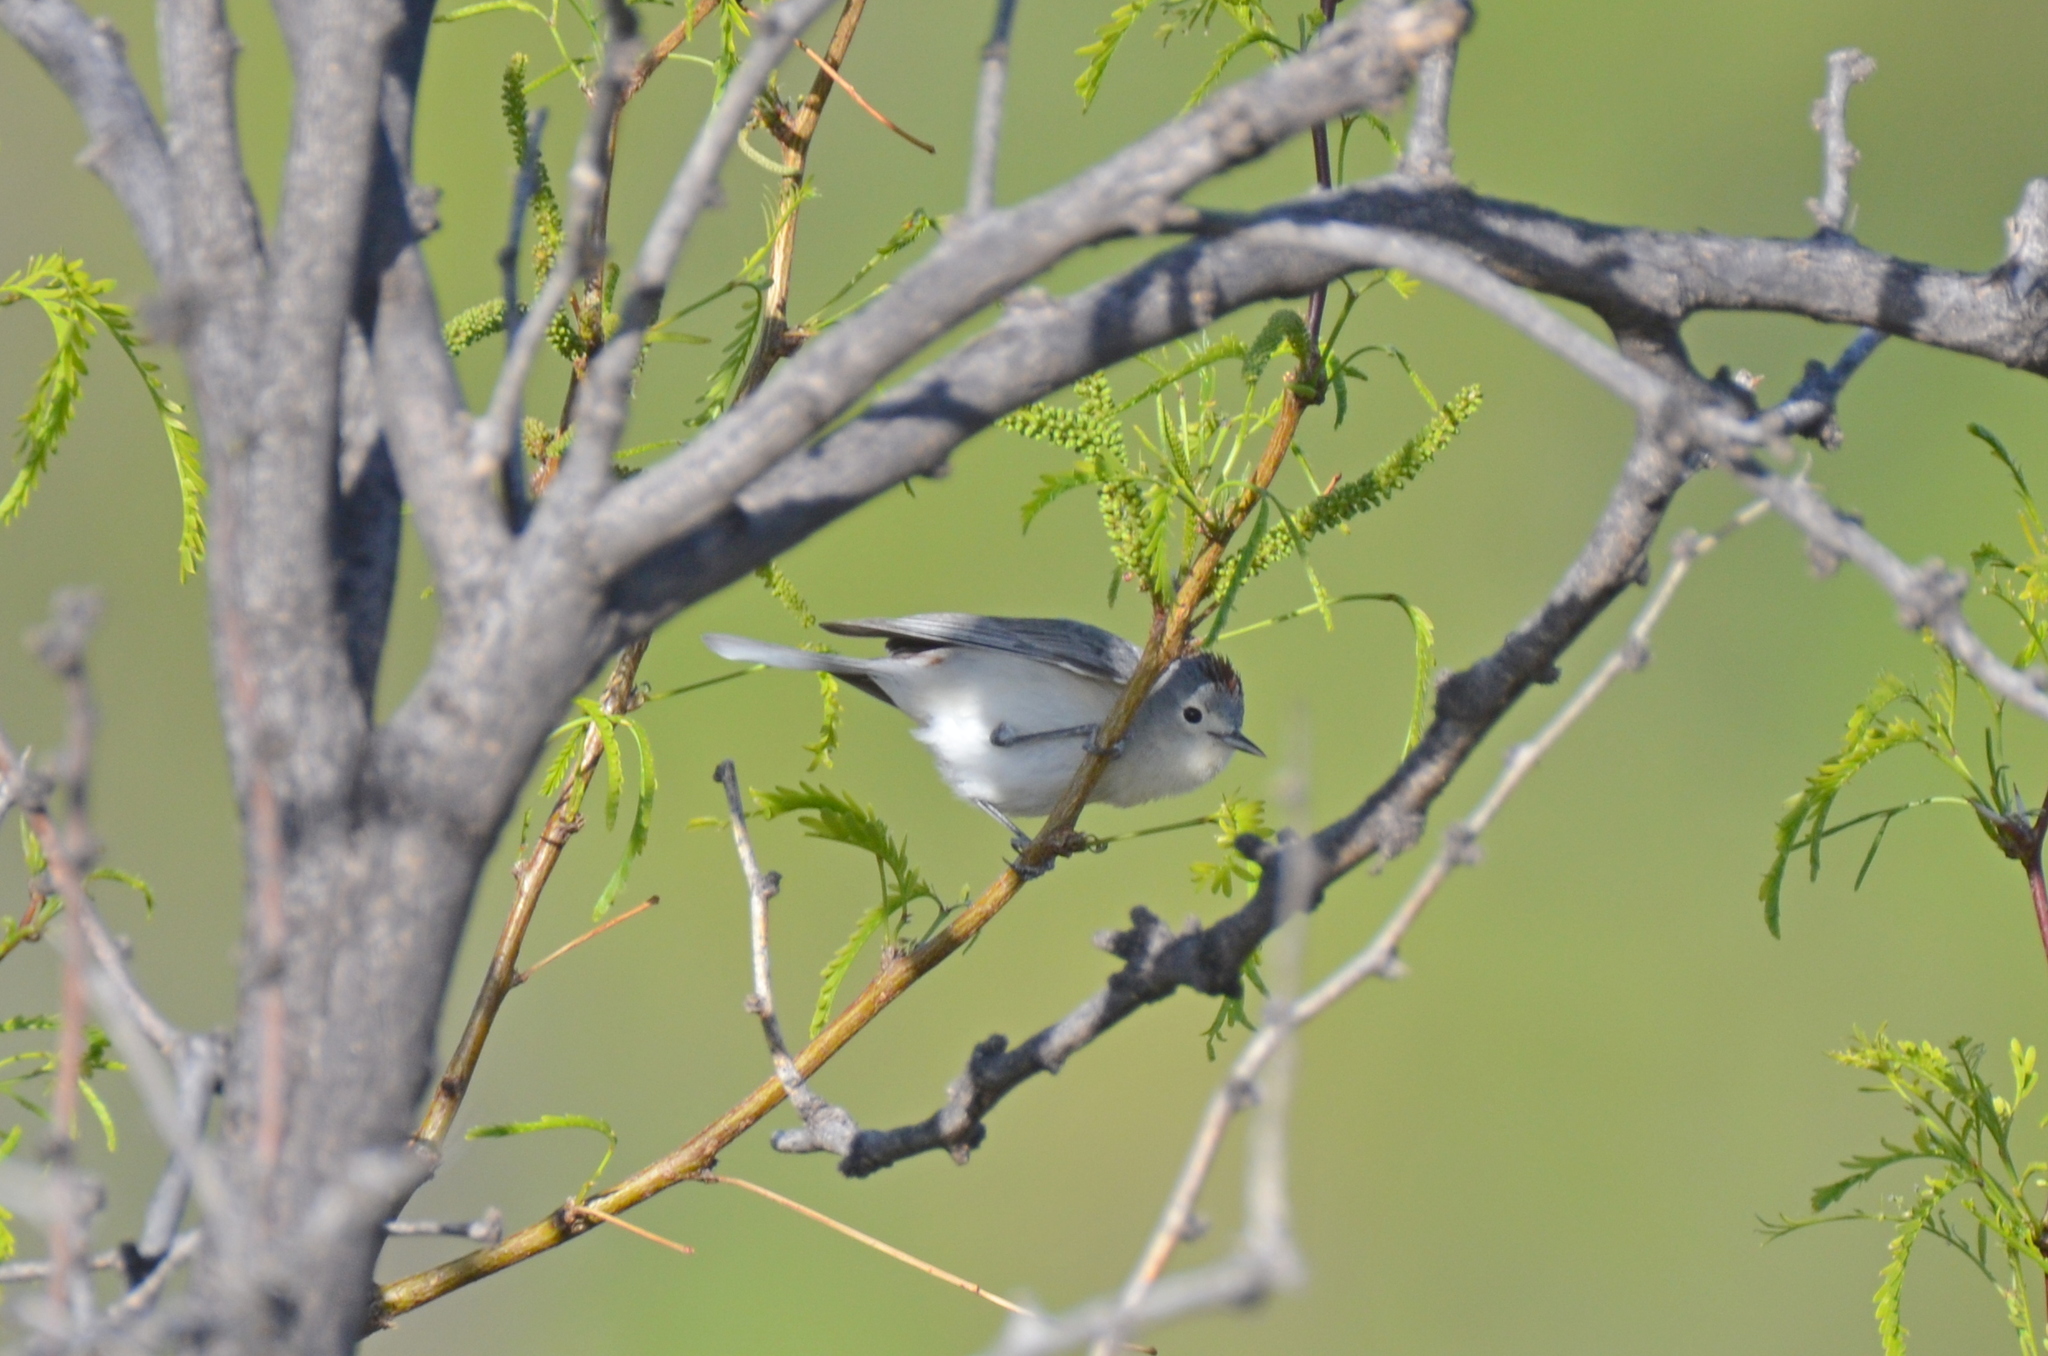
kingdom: Animalia
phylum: Chordata
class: Aves
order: Passeriformes
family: Parulidae
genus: Leiothlypis
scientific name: Leiothlypis luciae
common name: Lucy's warbler
